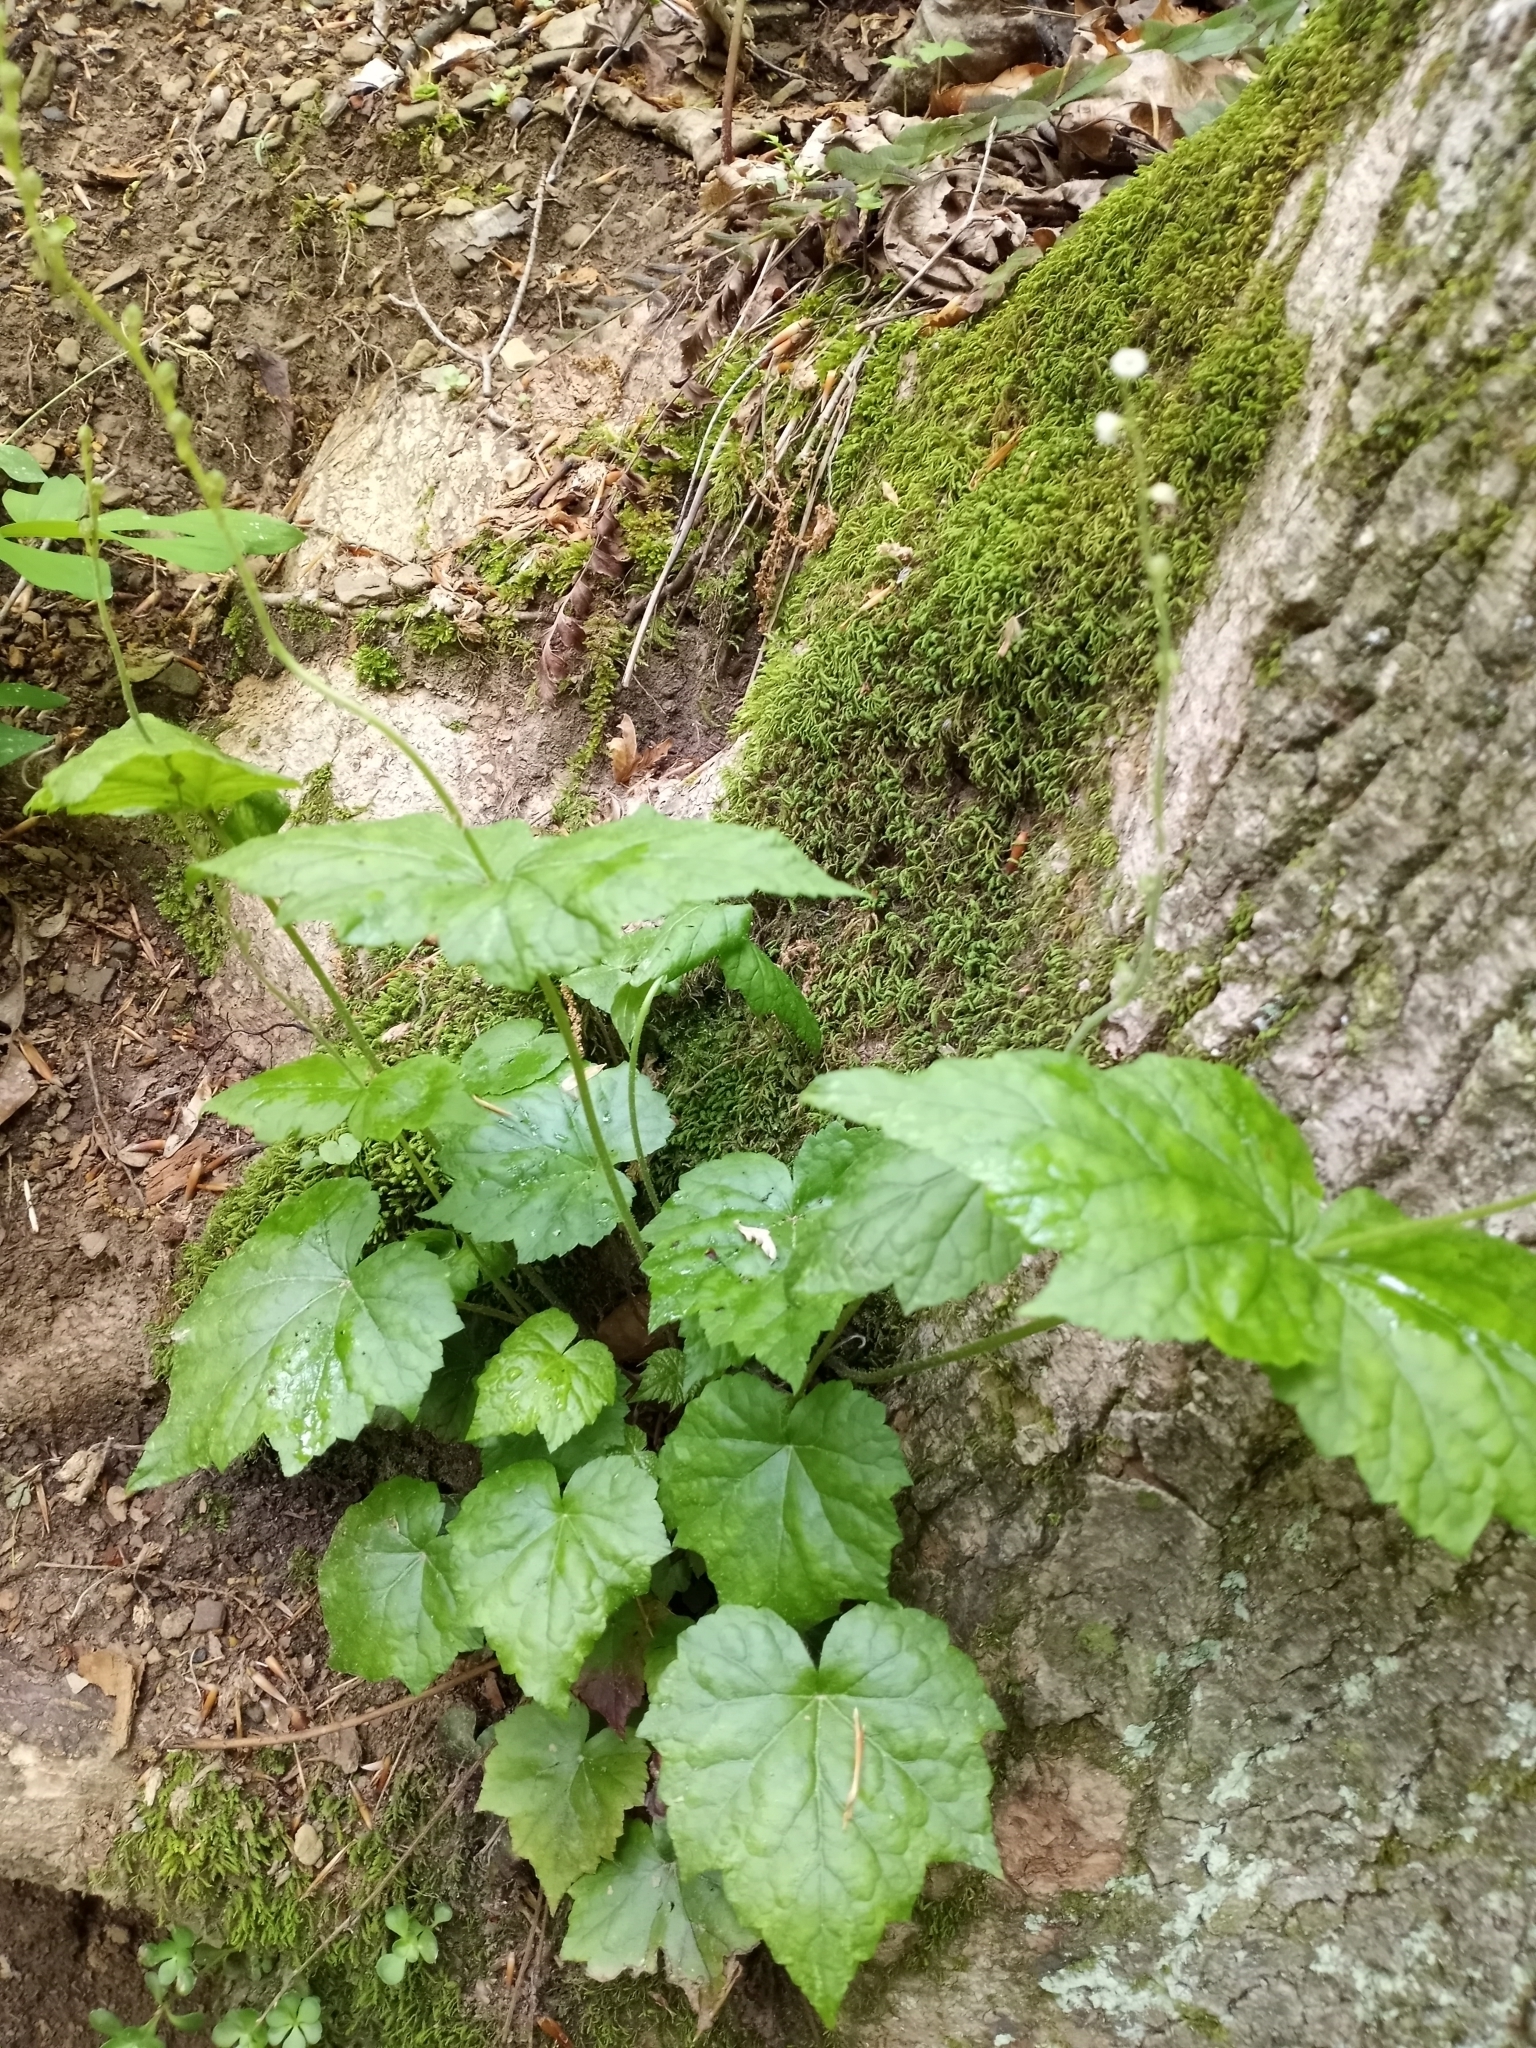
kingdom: Plantae
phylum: Tracheophyta
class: Magnoliopsida
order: Saxifragales
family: Saxifragaceae
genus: Mitella
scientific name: Mitella diphylla
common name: Coolwort
